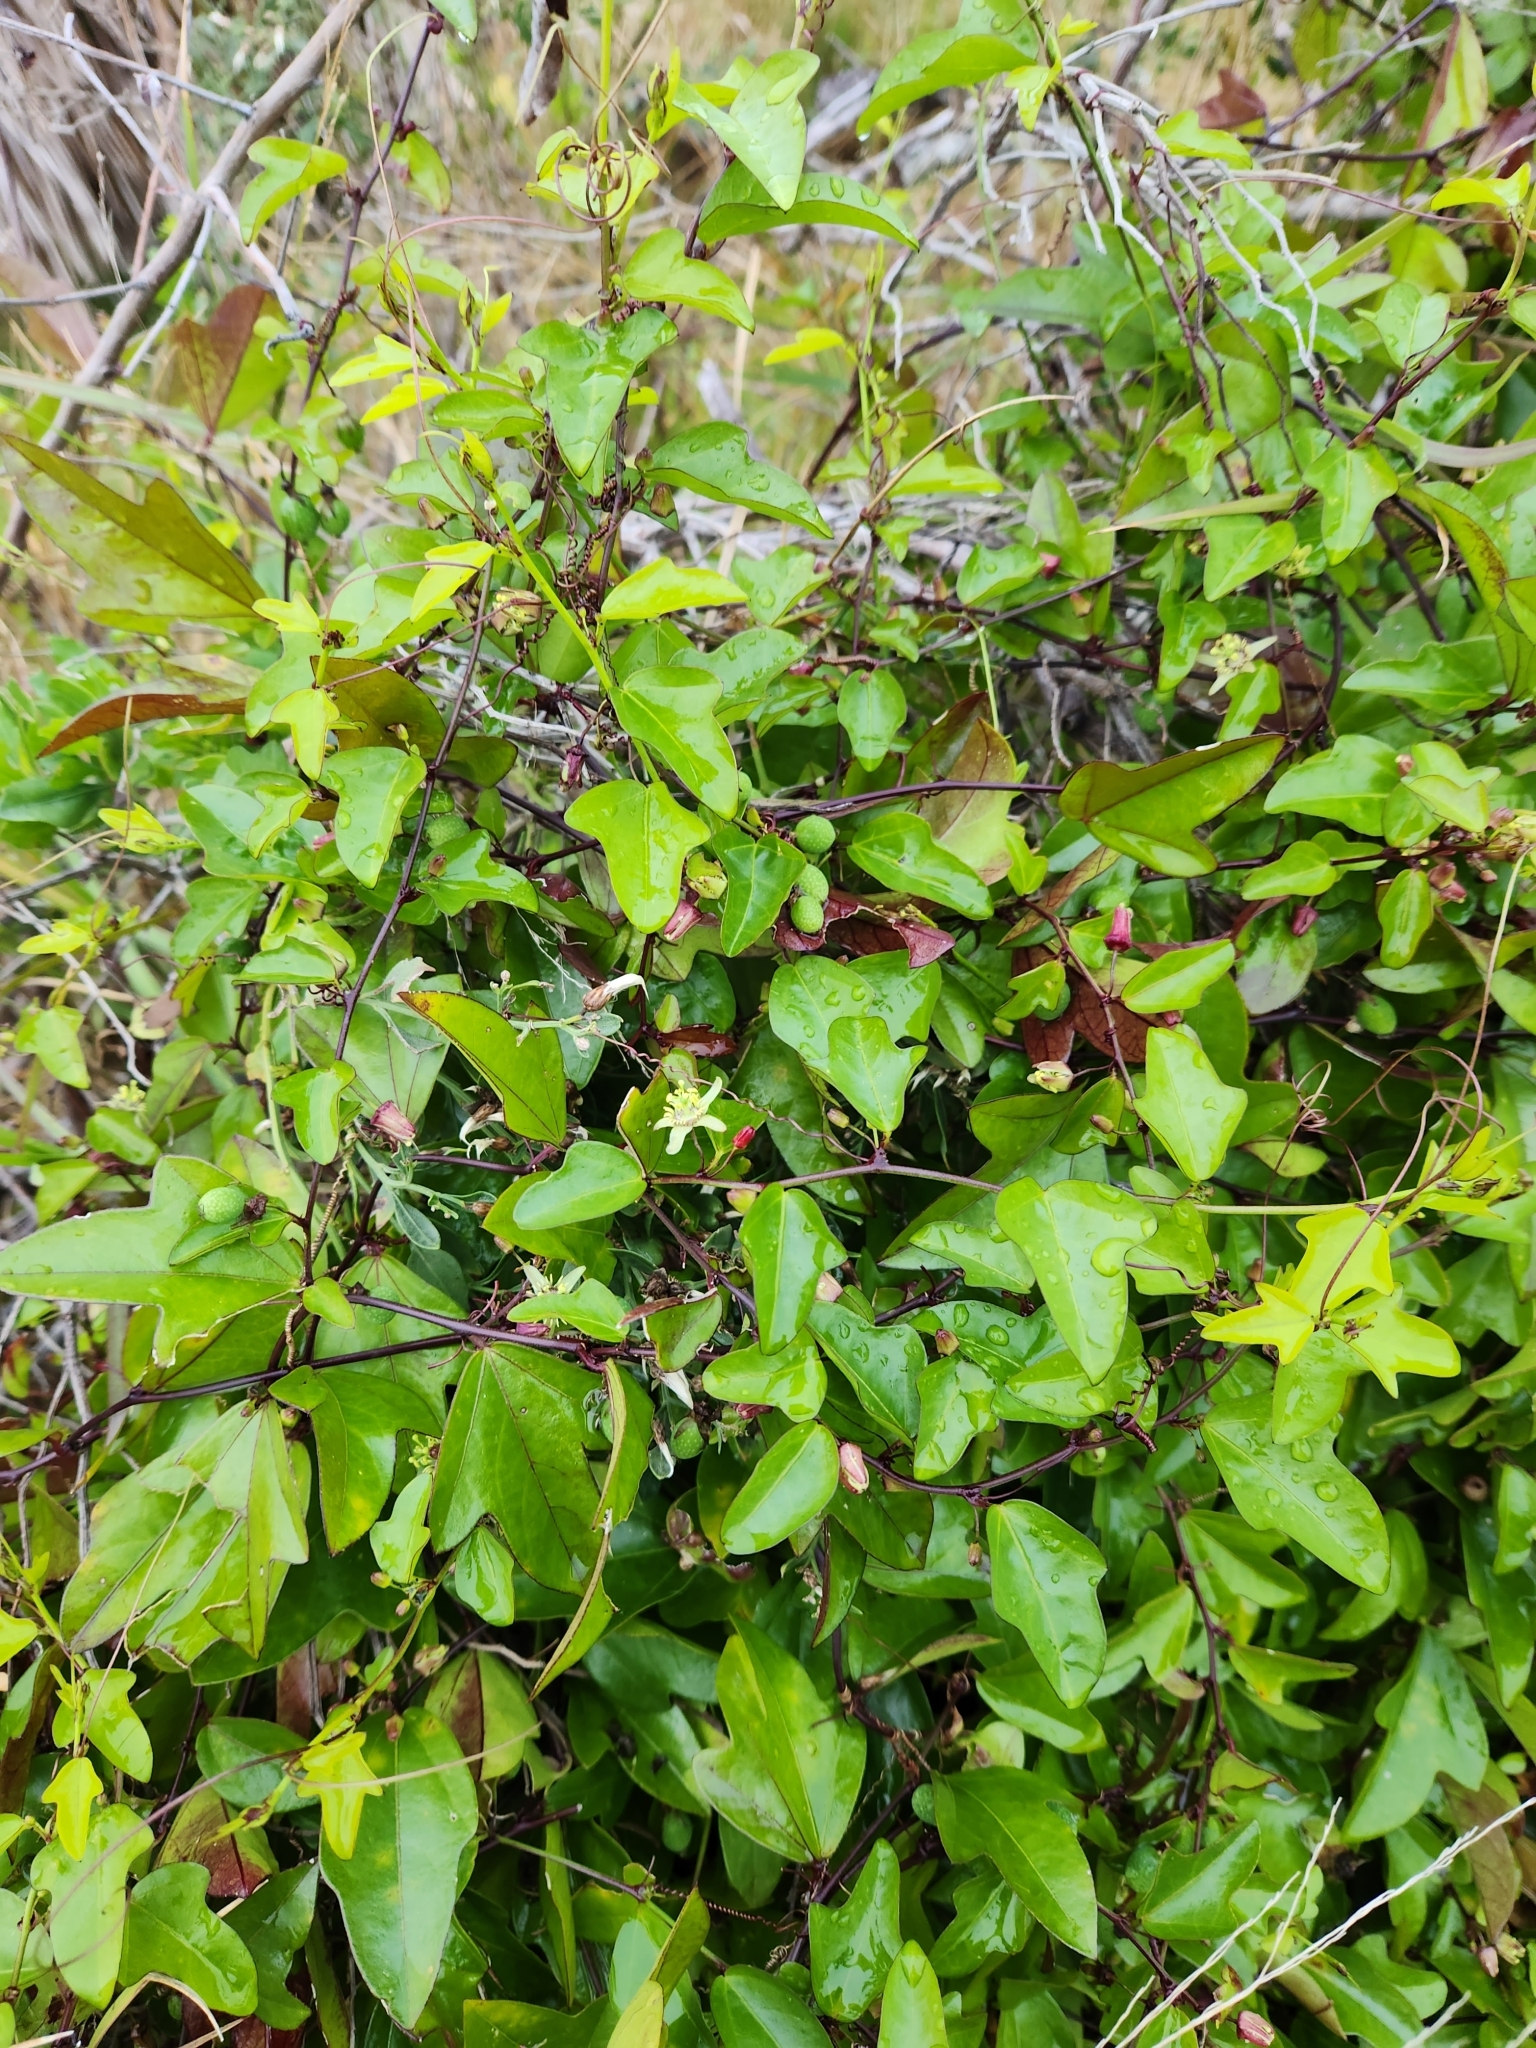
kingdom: Plantae
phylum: Tracheophyta
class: Magnoliopsida
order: Malpighiales
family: Passifloraceae
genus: Passiflora
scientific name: Passiflora pallida
